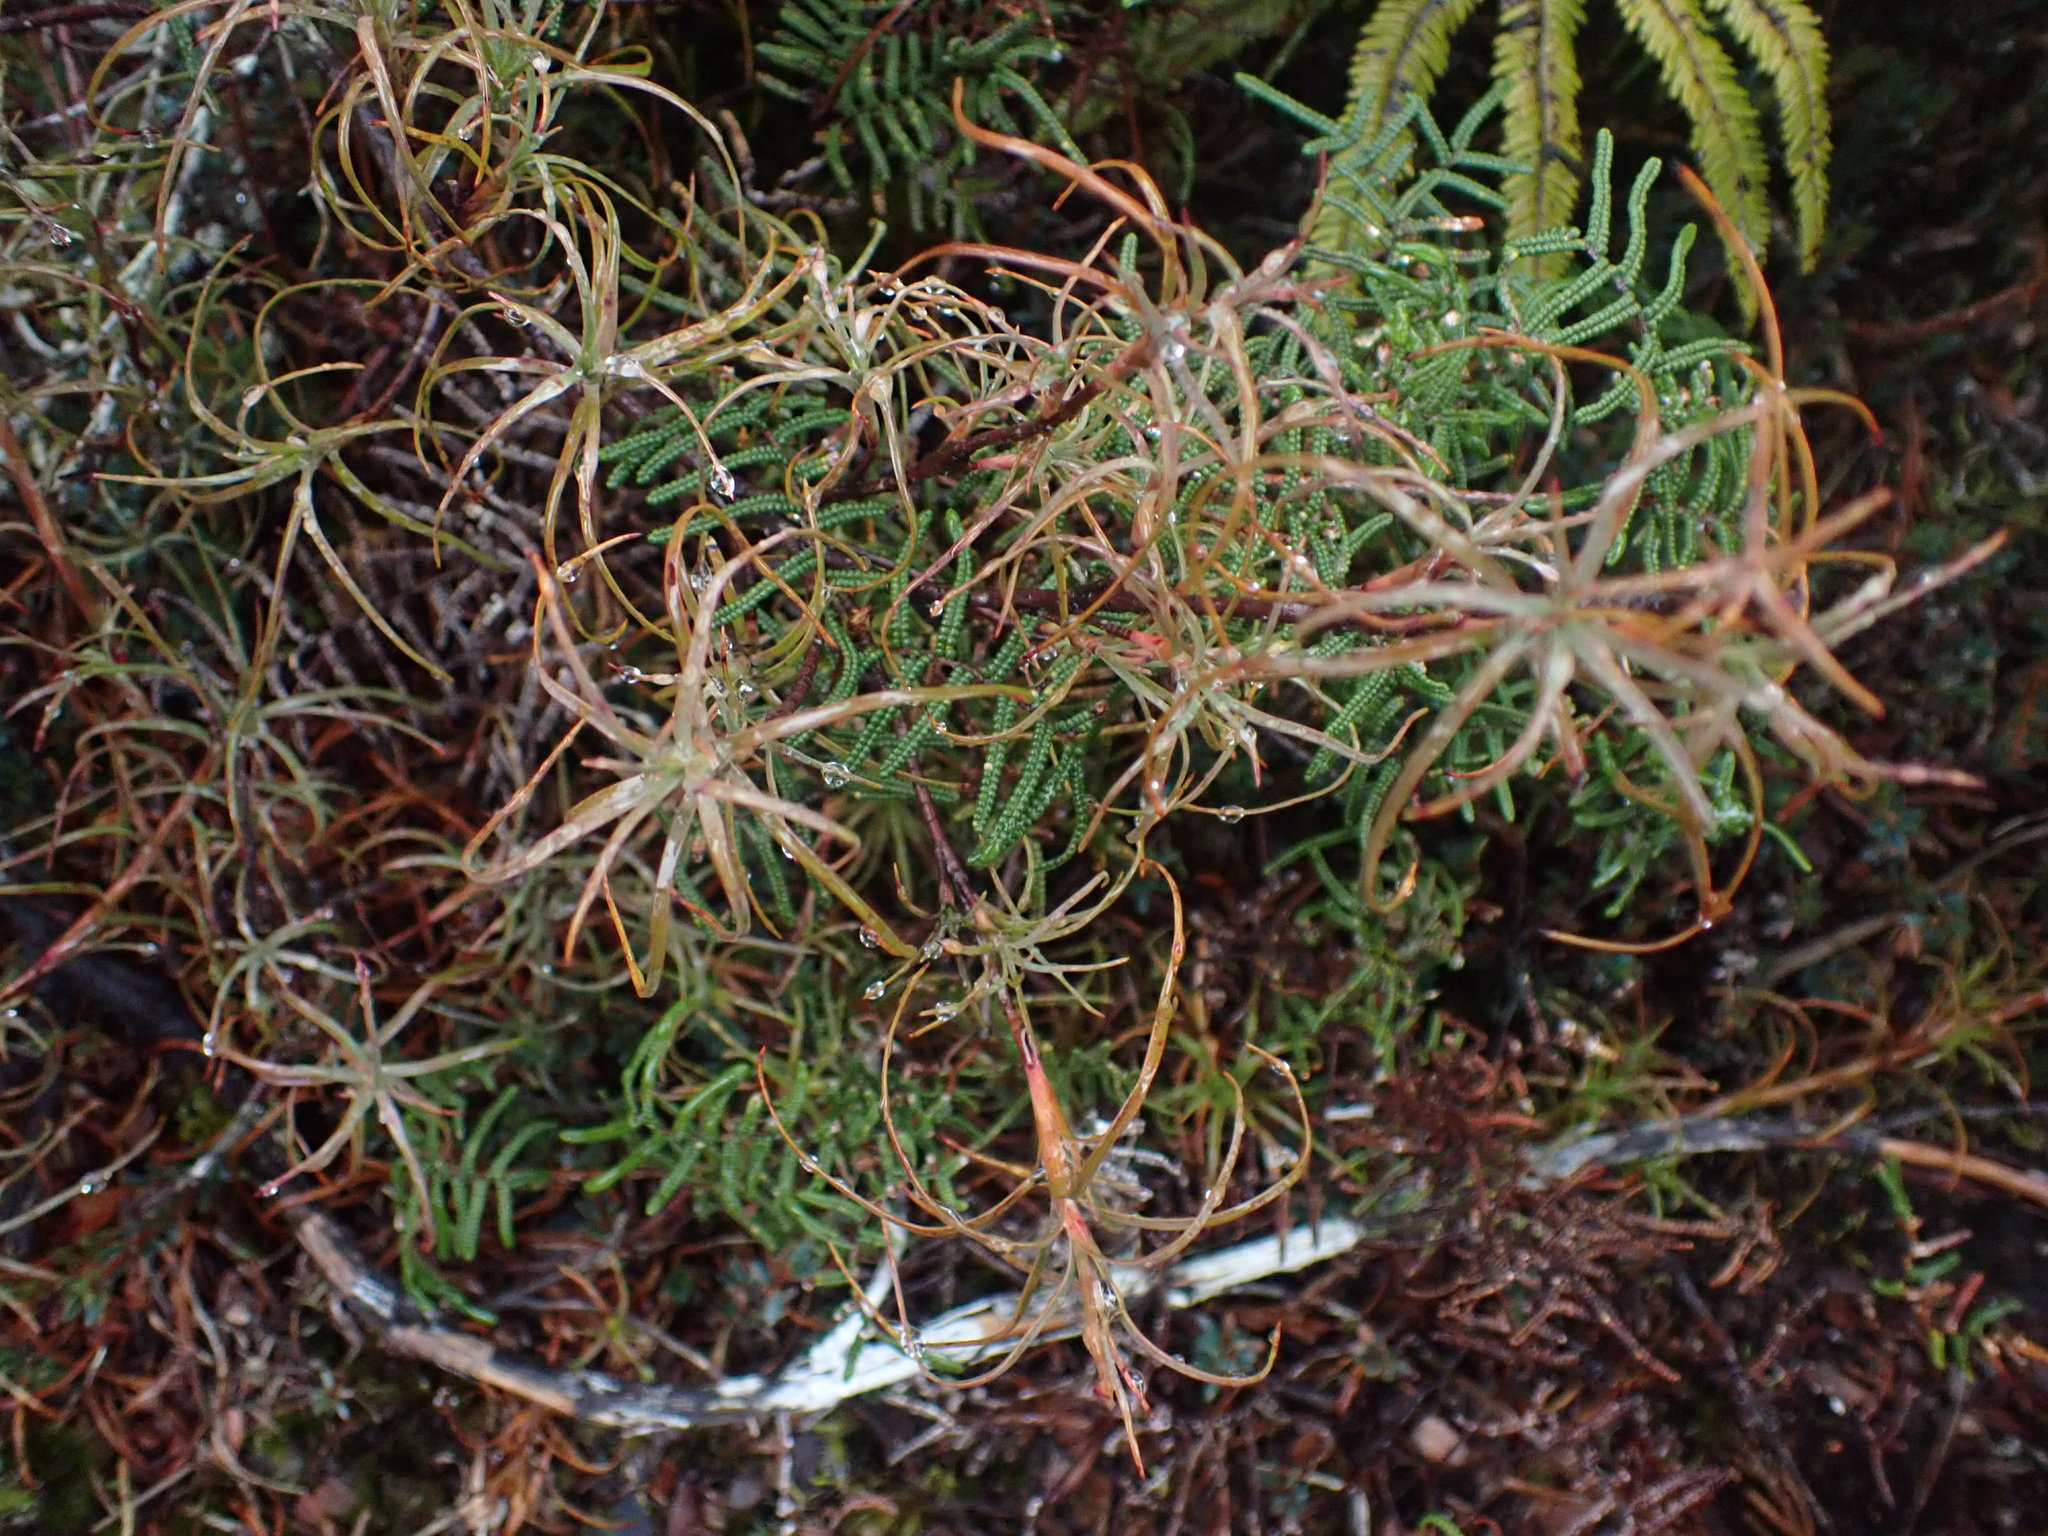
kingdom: Plantae
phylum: Tracheophyta
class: Magnoliopsida
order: Ericales
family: Ericaceae
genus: Dracophyllum
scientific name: Dracophyllum recurvum
